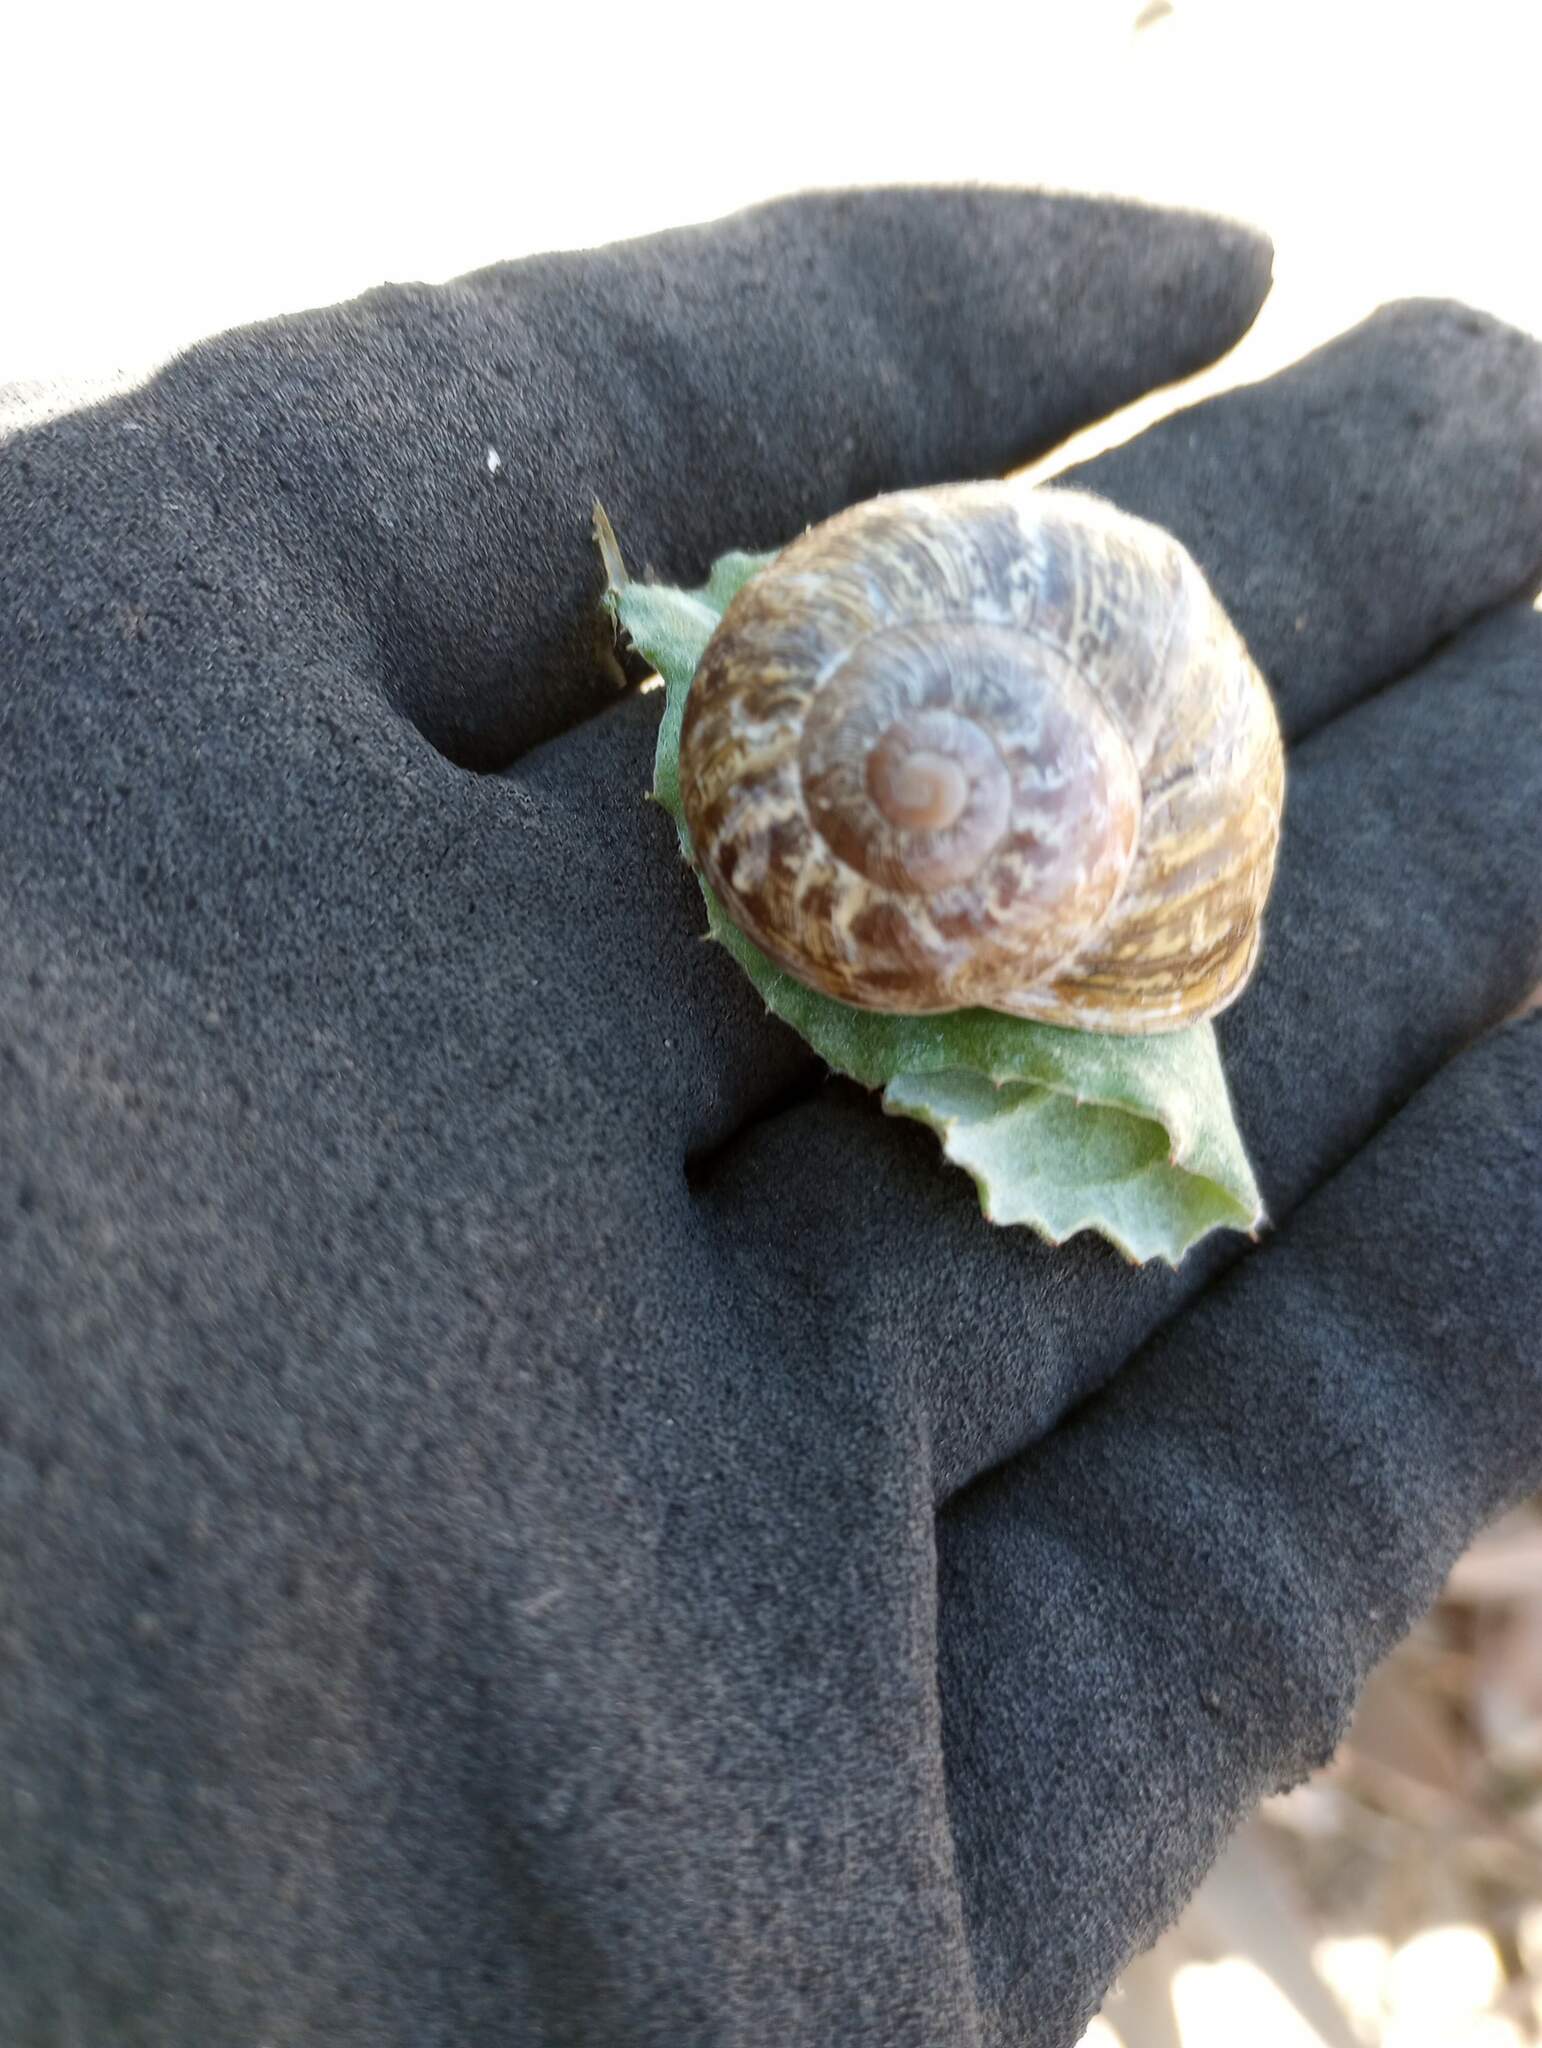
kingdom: Animalia
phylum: Mollusca
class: Gastropoda
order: Stylommatophora
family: Helicidae
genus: Cornu
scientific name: Cornu aspersum
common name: Brown garden snail
